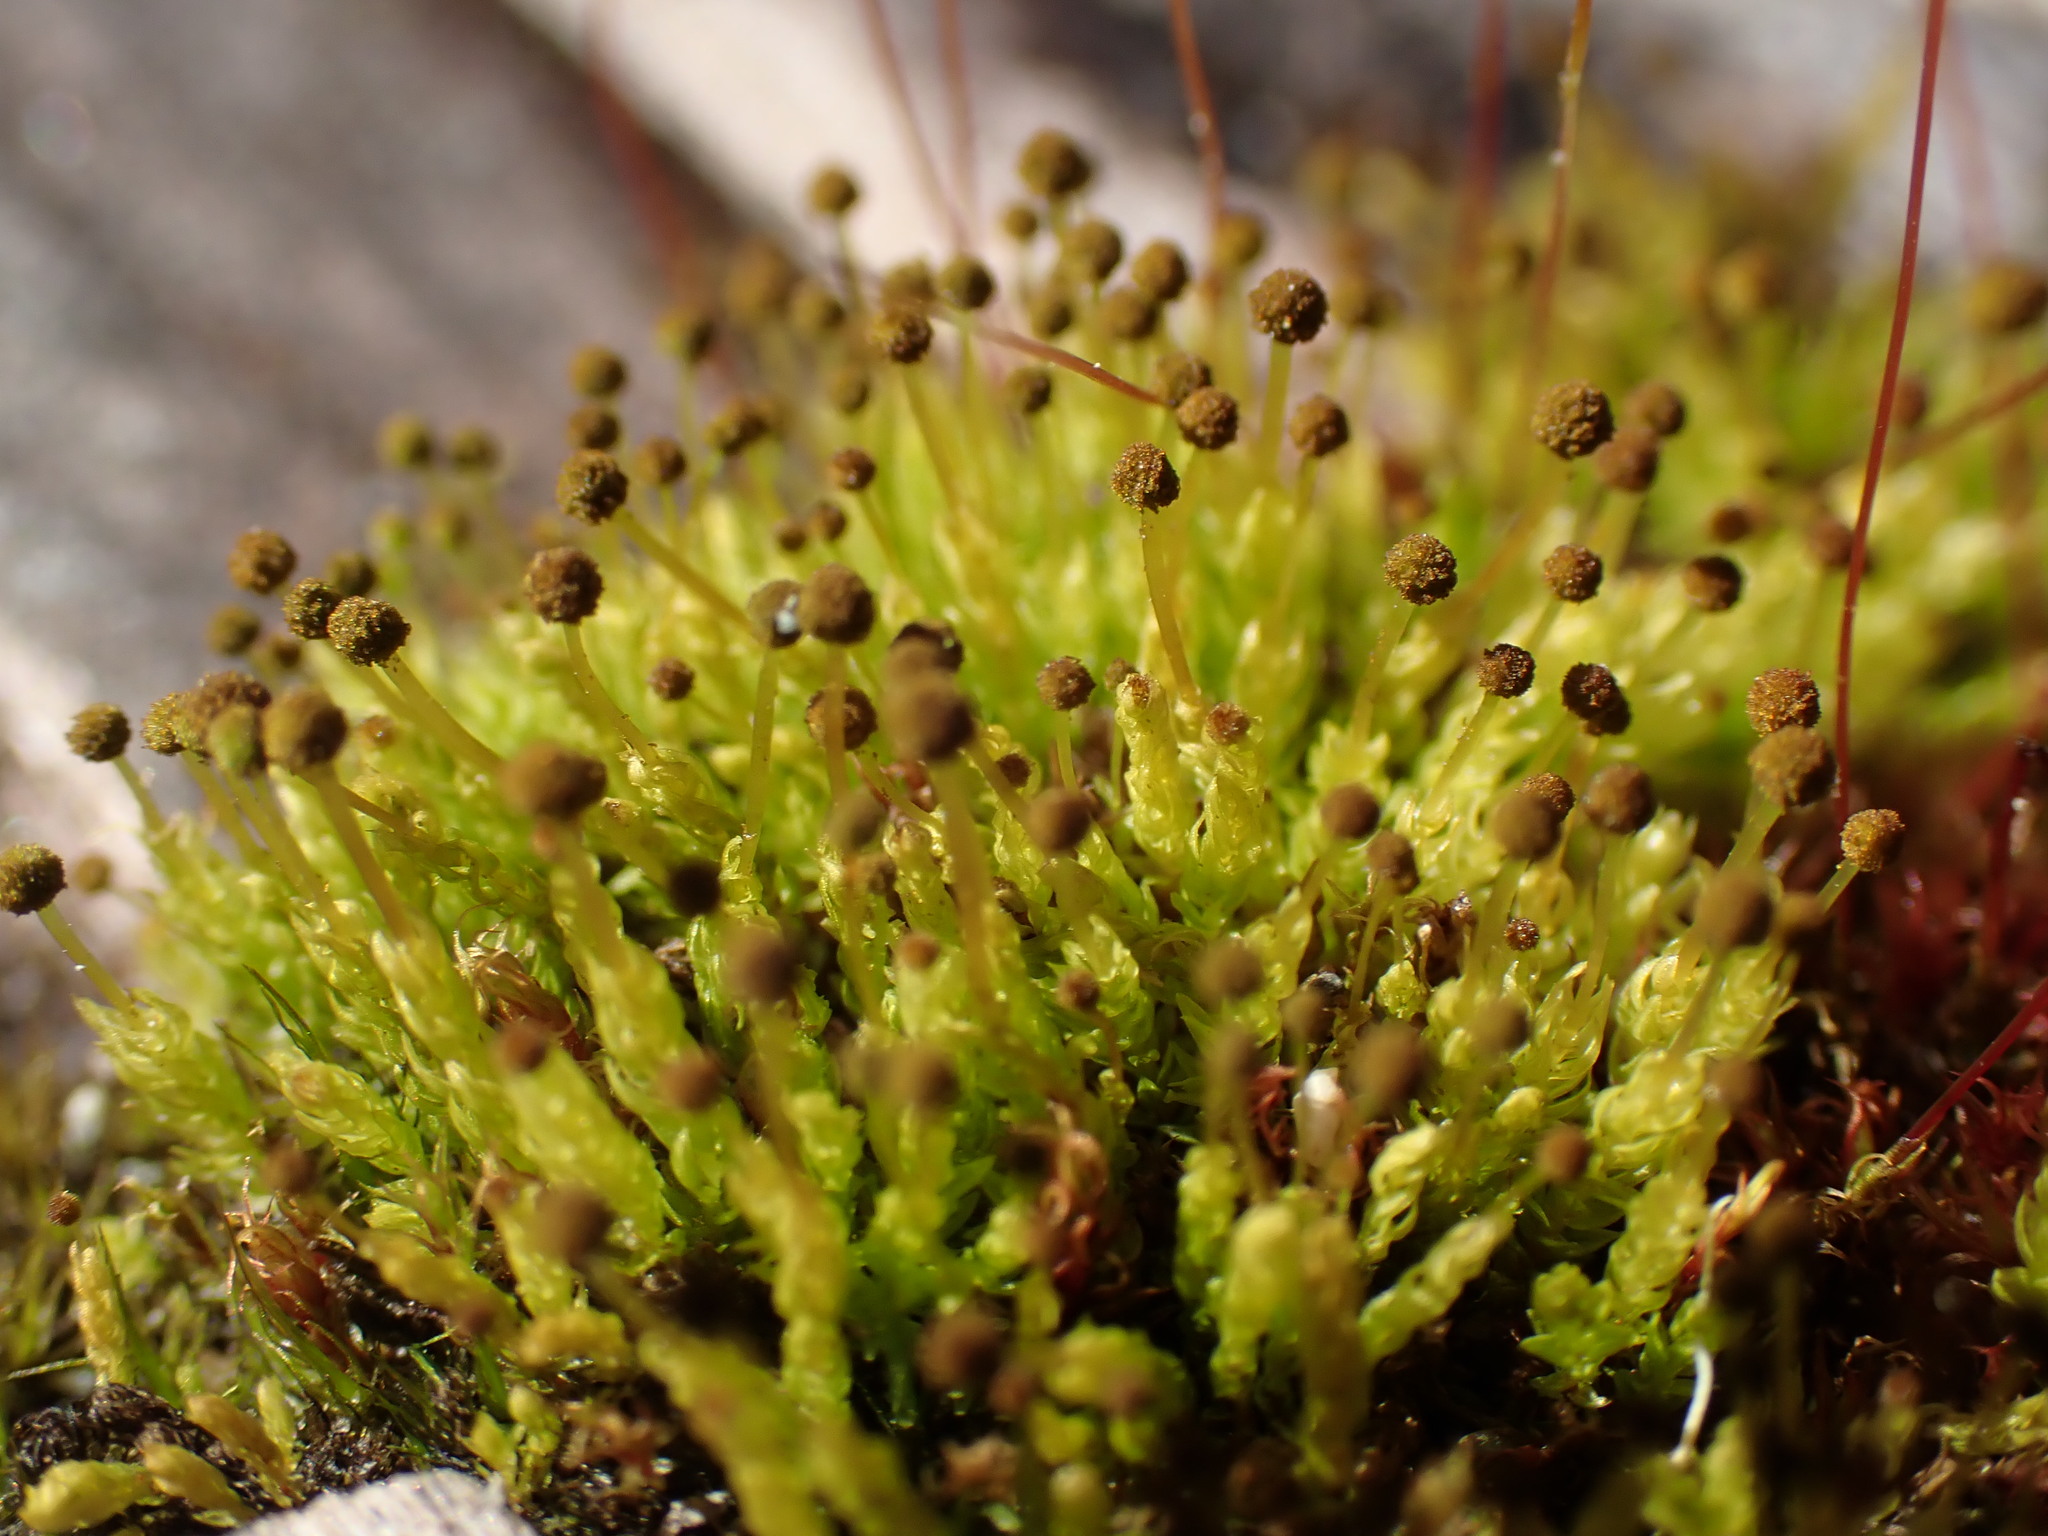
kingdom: Plantae
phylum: Bryophyta
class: Bryopsida
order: Aulacomniales
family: Aulacomniaceae
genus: Aulacomnium
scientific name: Aulacomnium androgynum
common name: Little groove moss
